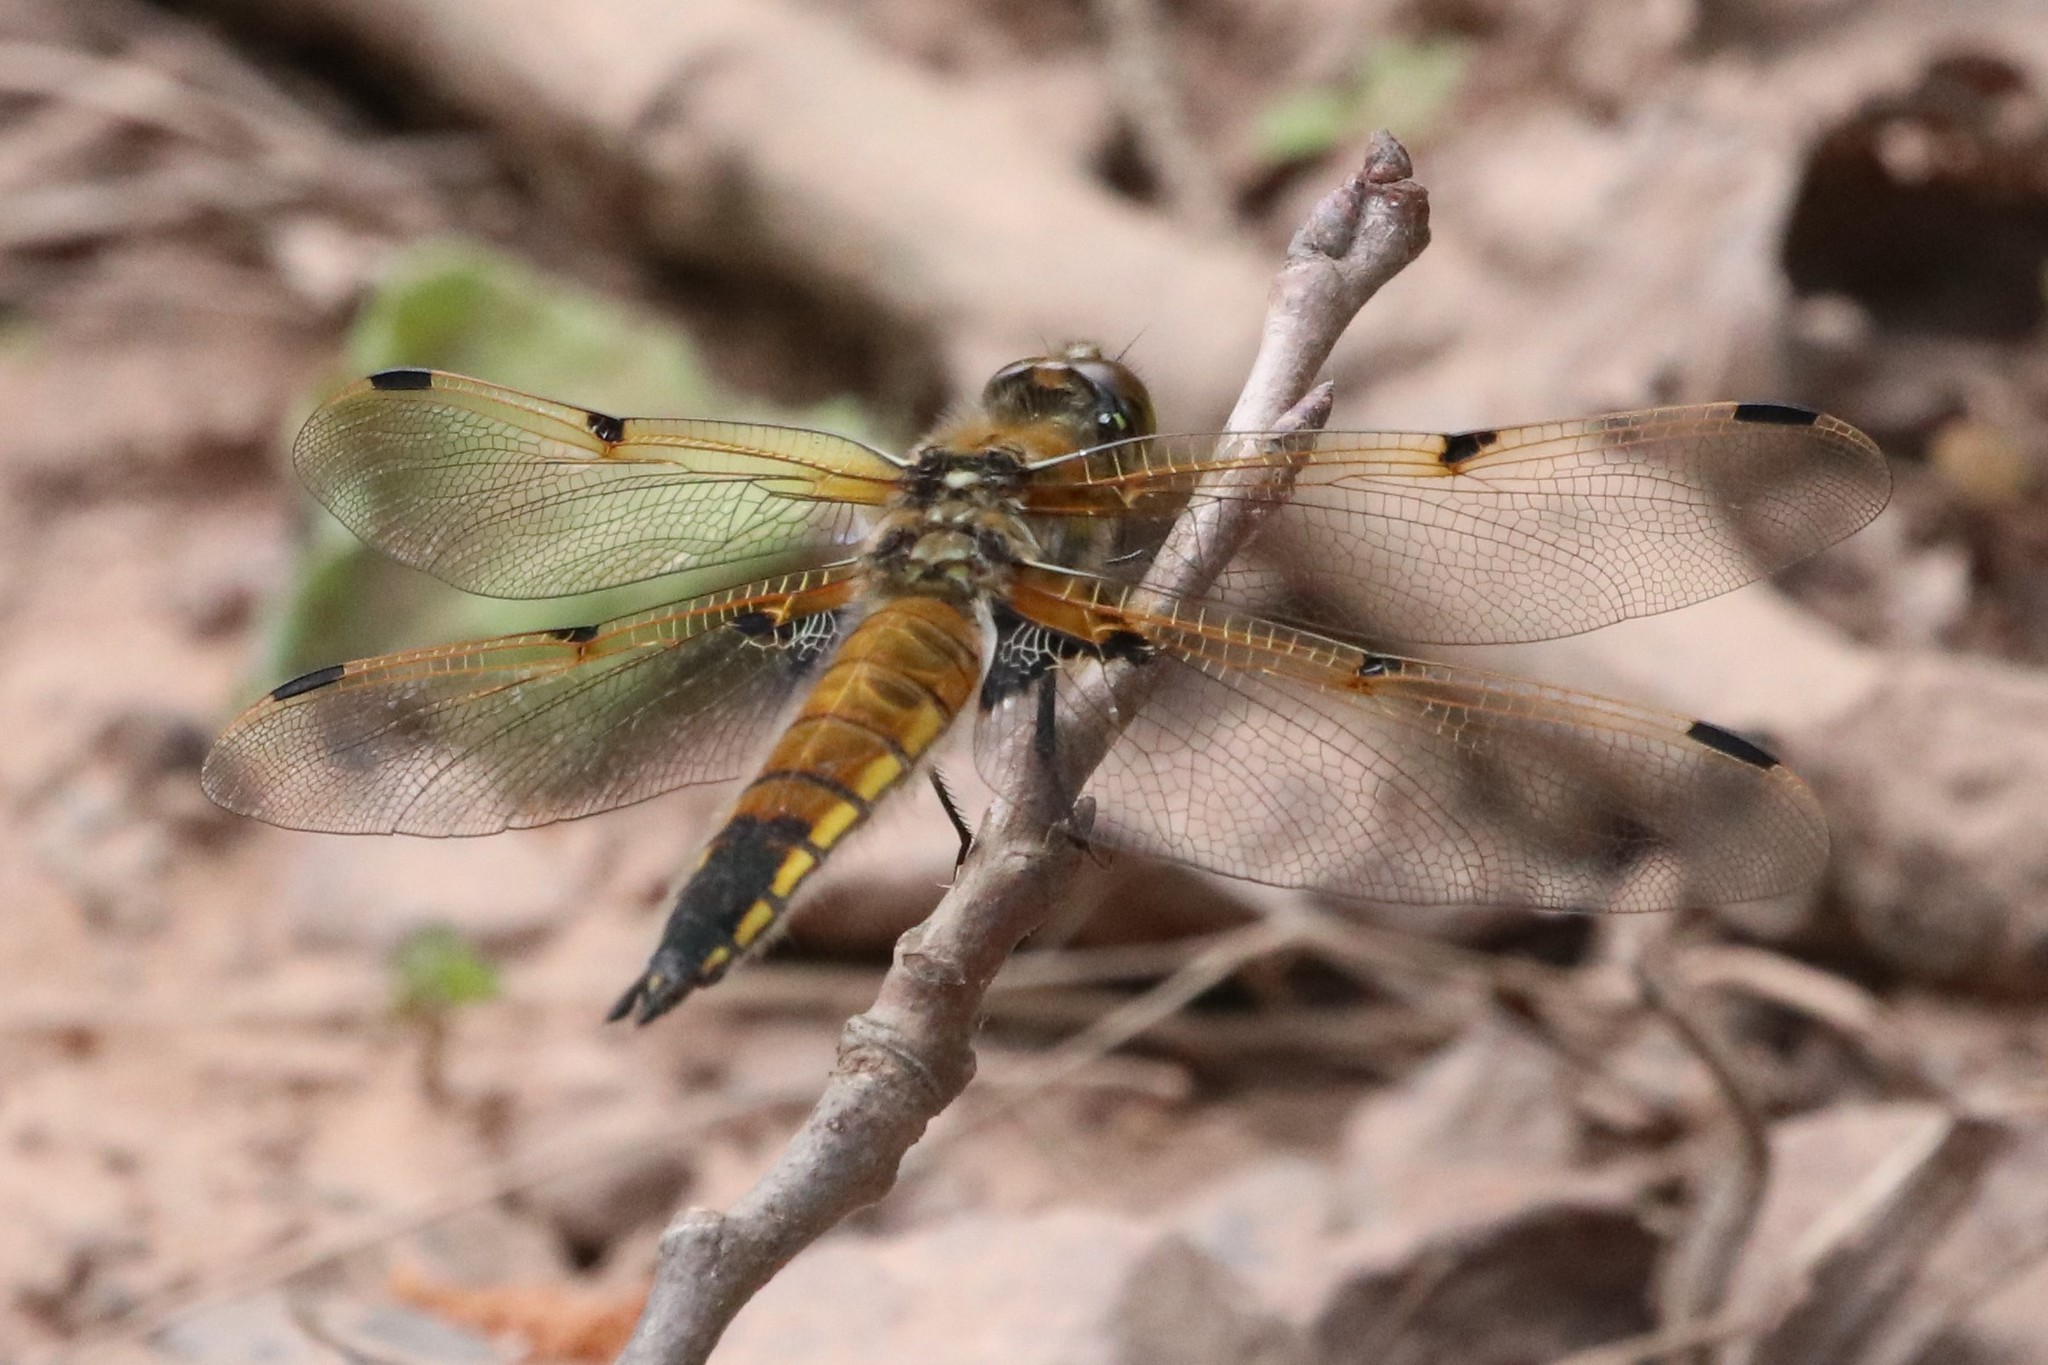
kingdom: Animalia
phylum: Arthropoda
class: Insecta
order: Odonata
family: Libellulidae
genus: Libellula
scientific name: Libellula quadrimaculata
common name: Four-spotted chaser
